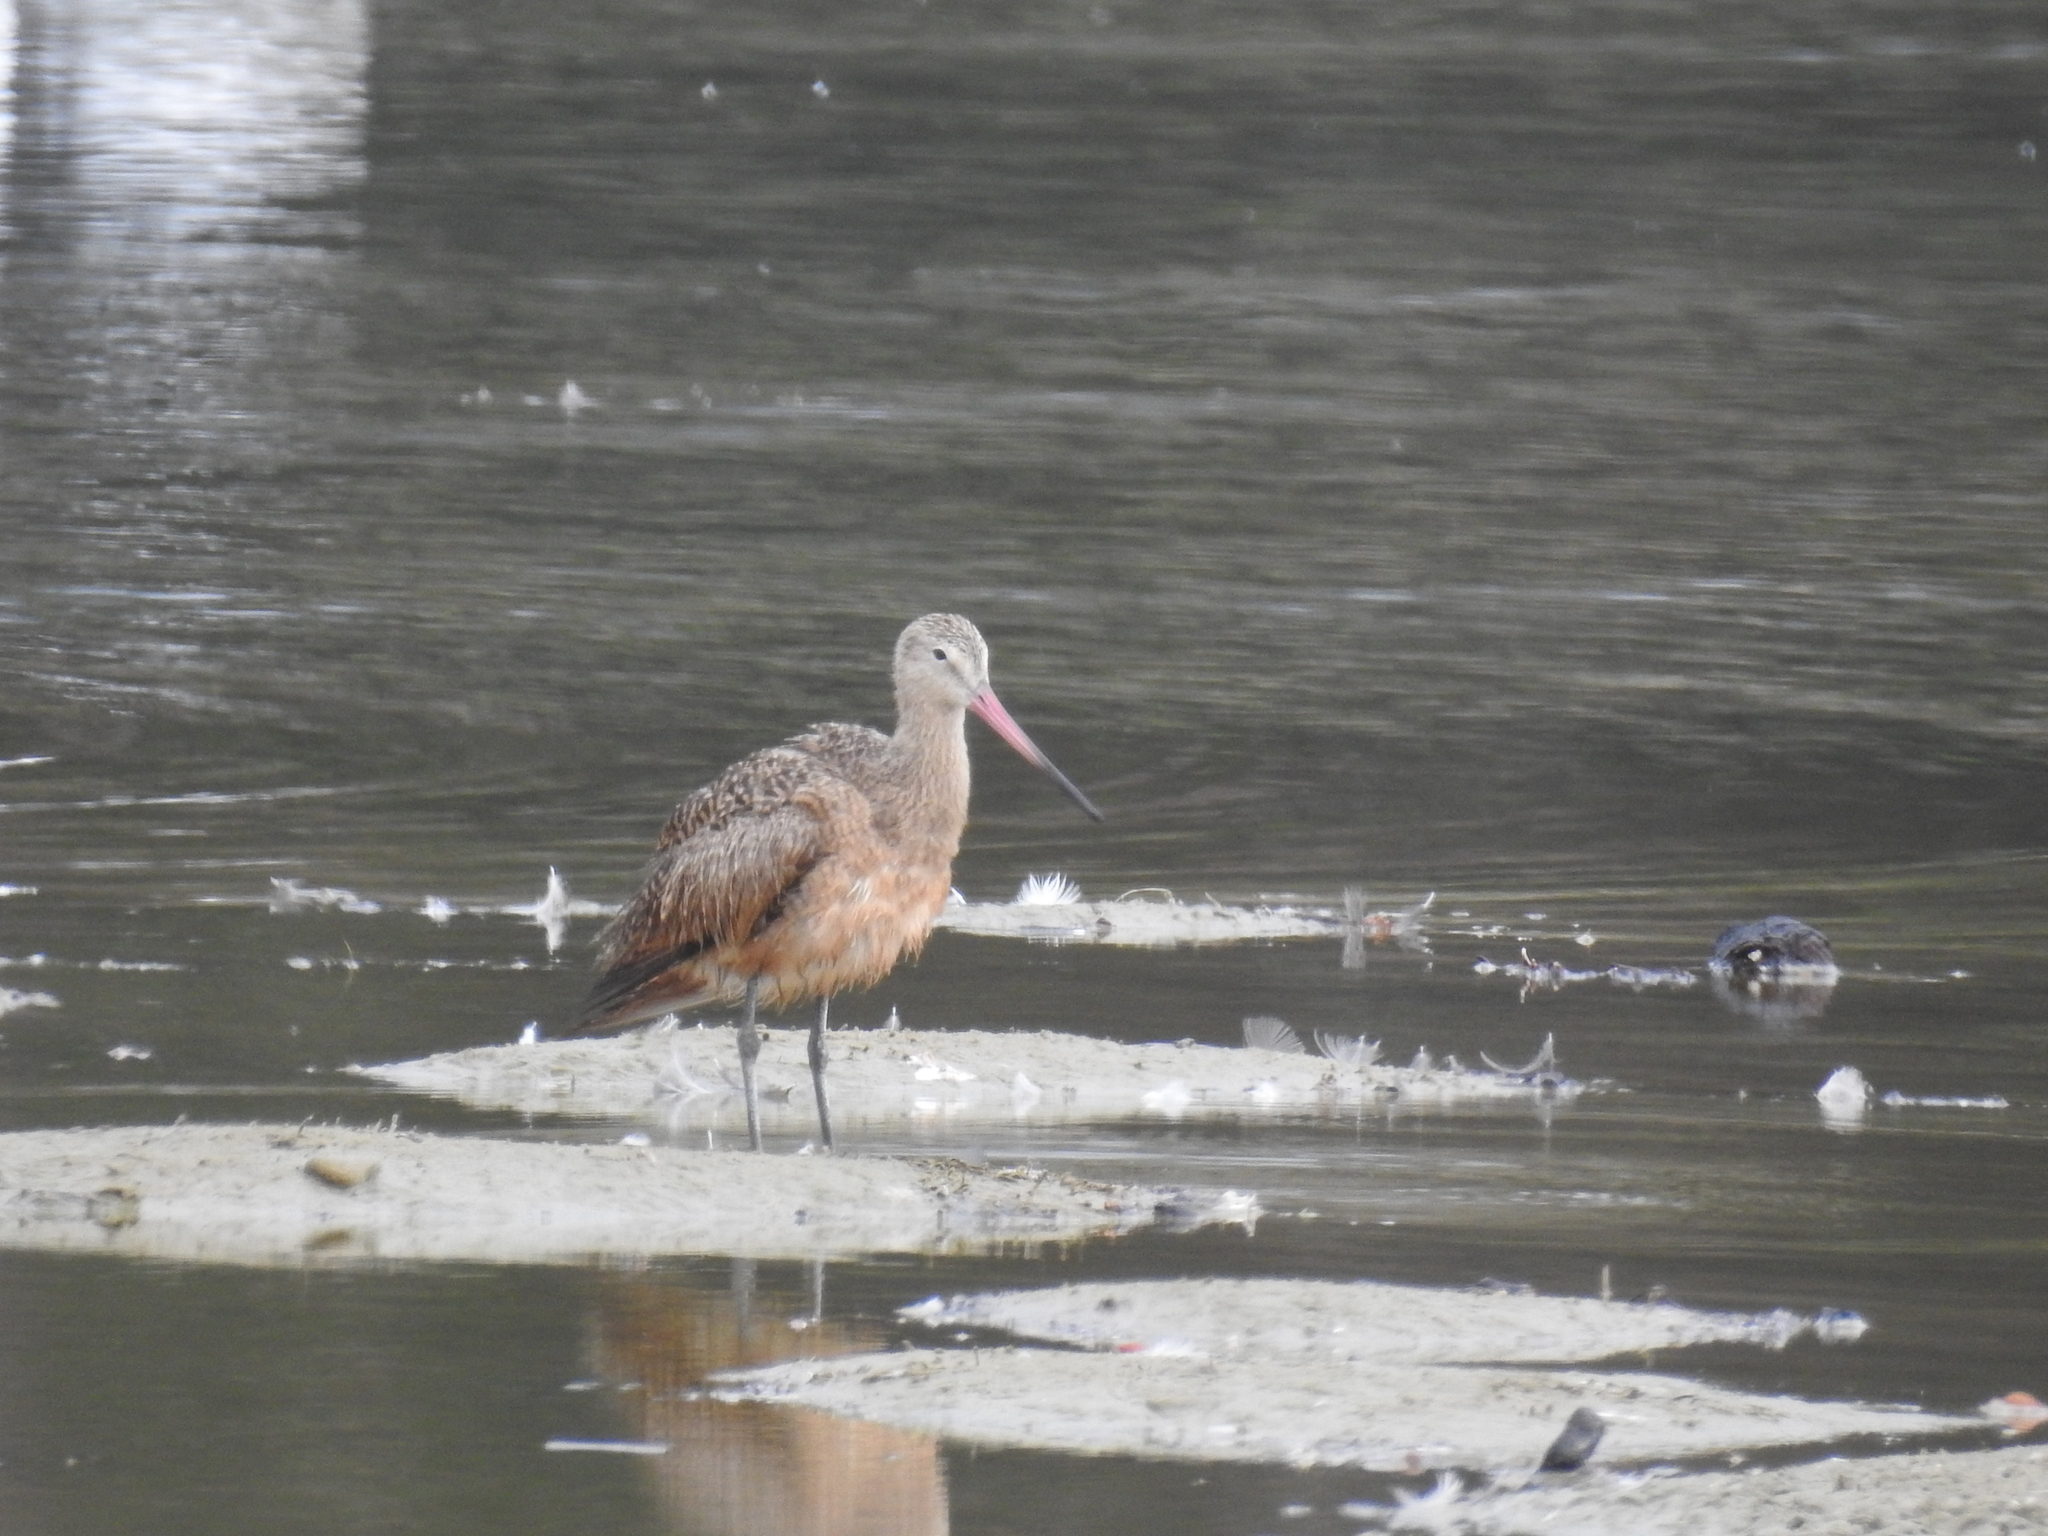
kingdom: Animalia
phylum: Chordata
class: Aves
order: Charadriiformes
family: Scolopacidae
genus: Limosa
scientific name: Limosa fedoa
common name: Marbled godwit
